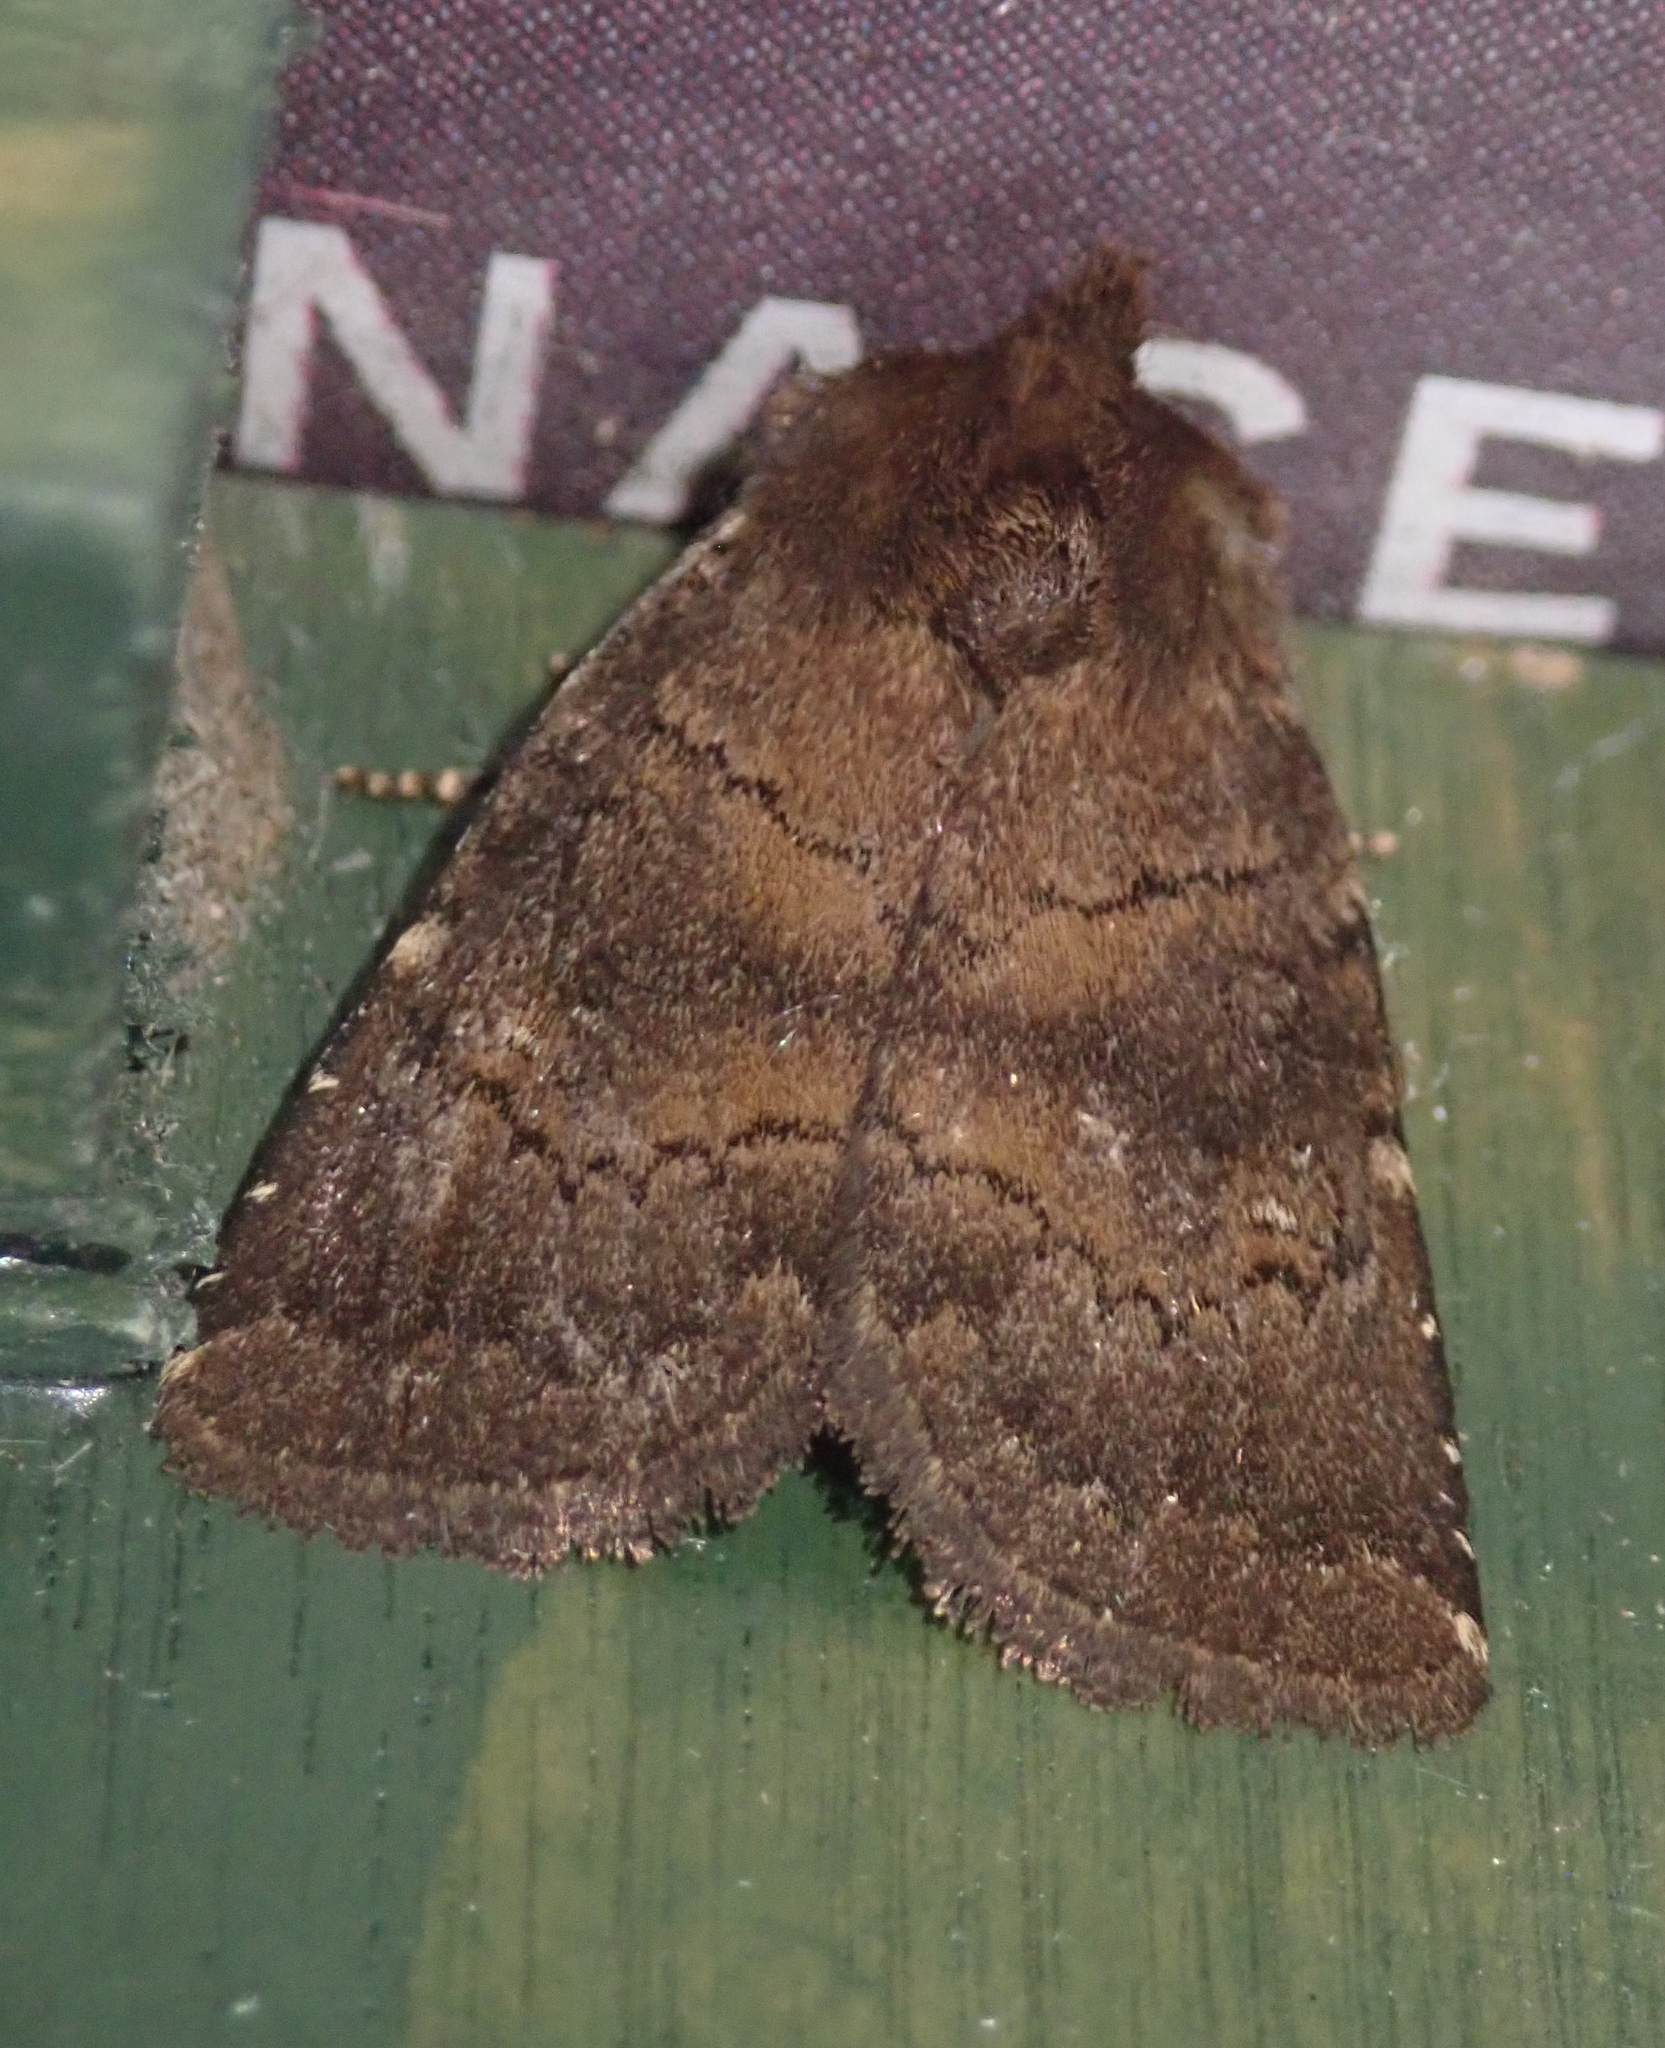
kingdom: Animalia
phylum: Arthropoda
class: Insecta
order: Lepidoptera
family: Noctuidae
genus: Charanyca
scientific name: Charanyca ferruginea
